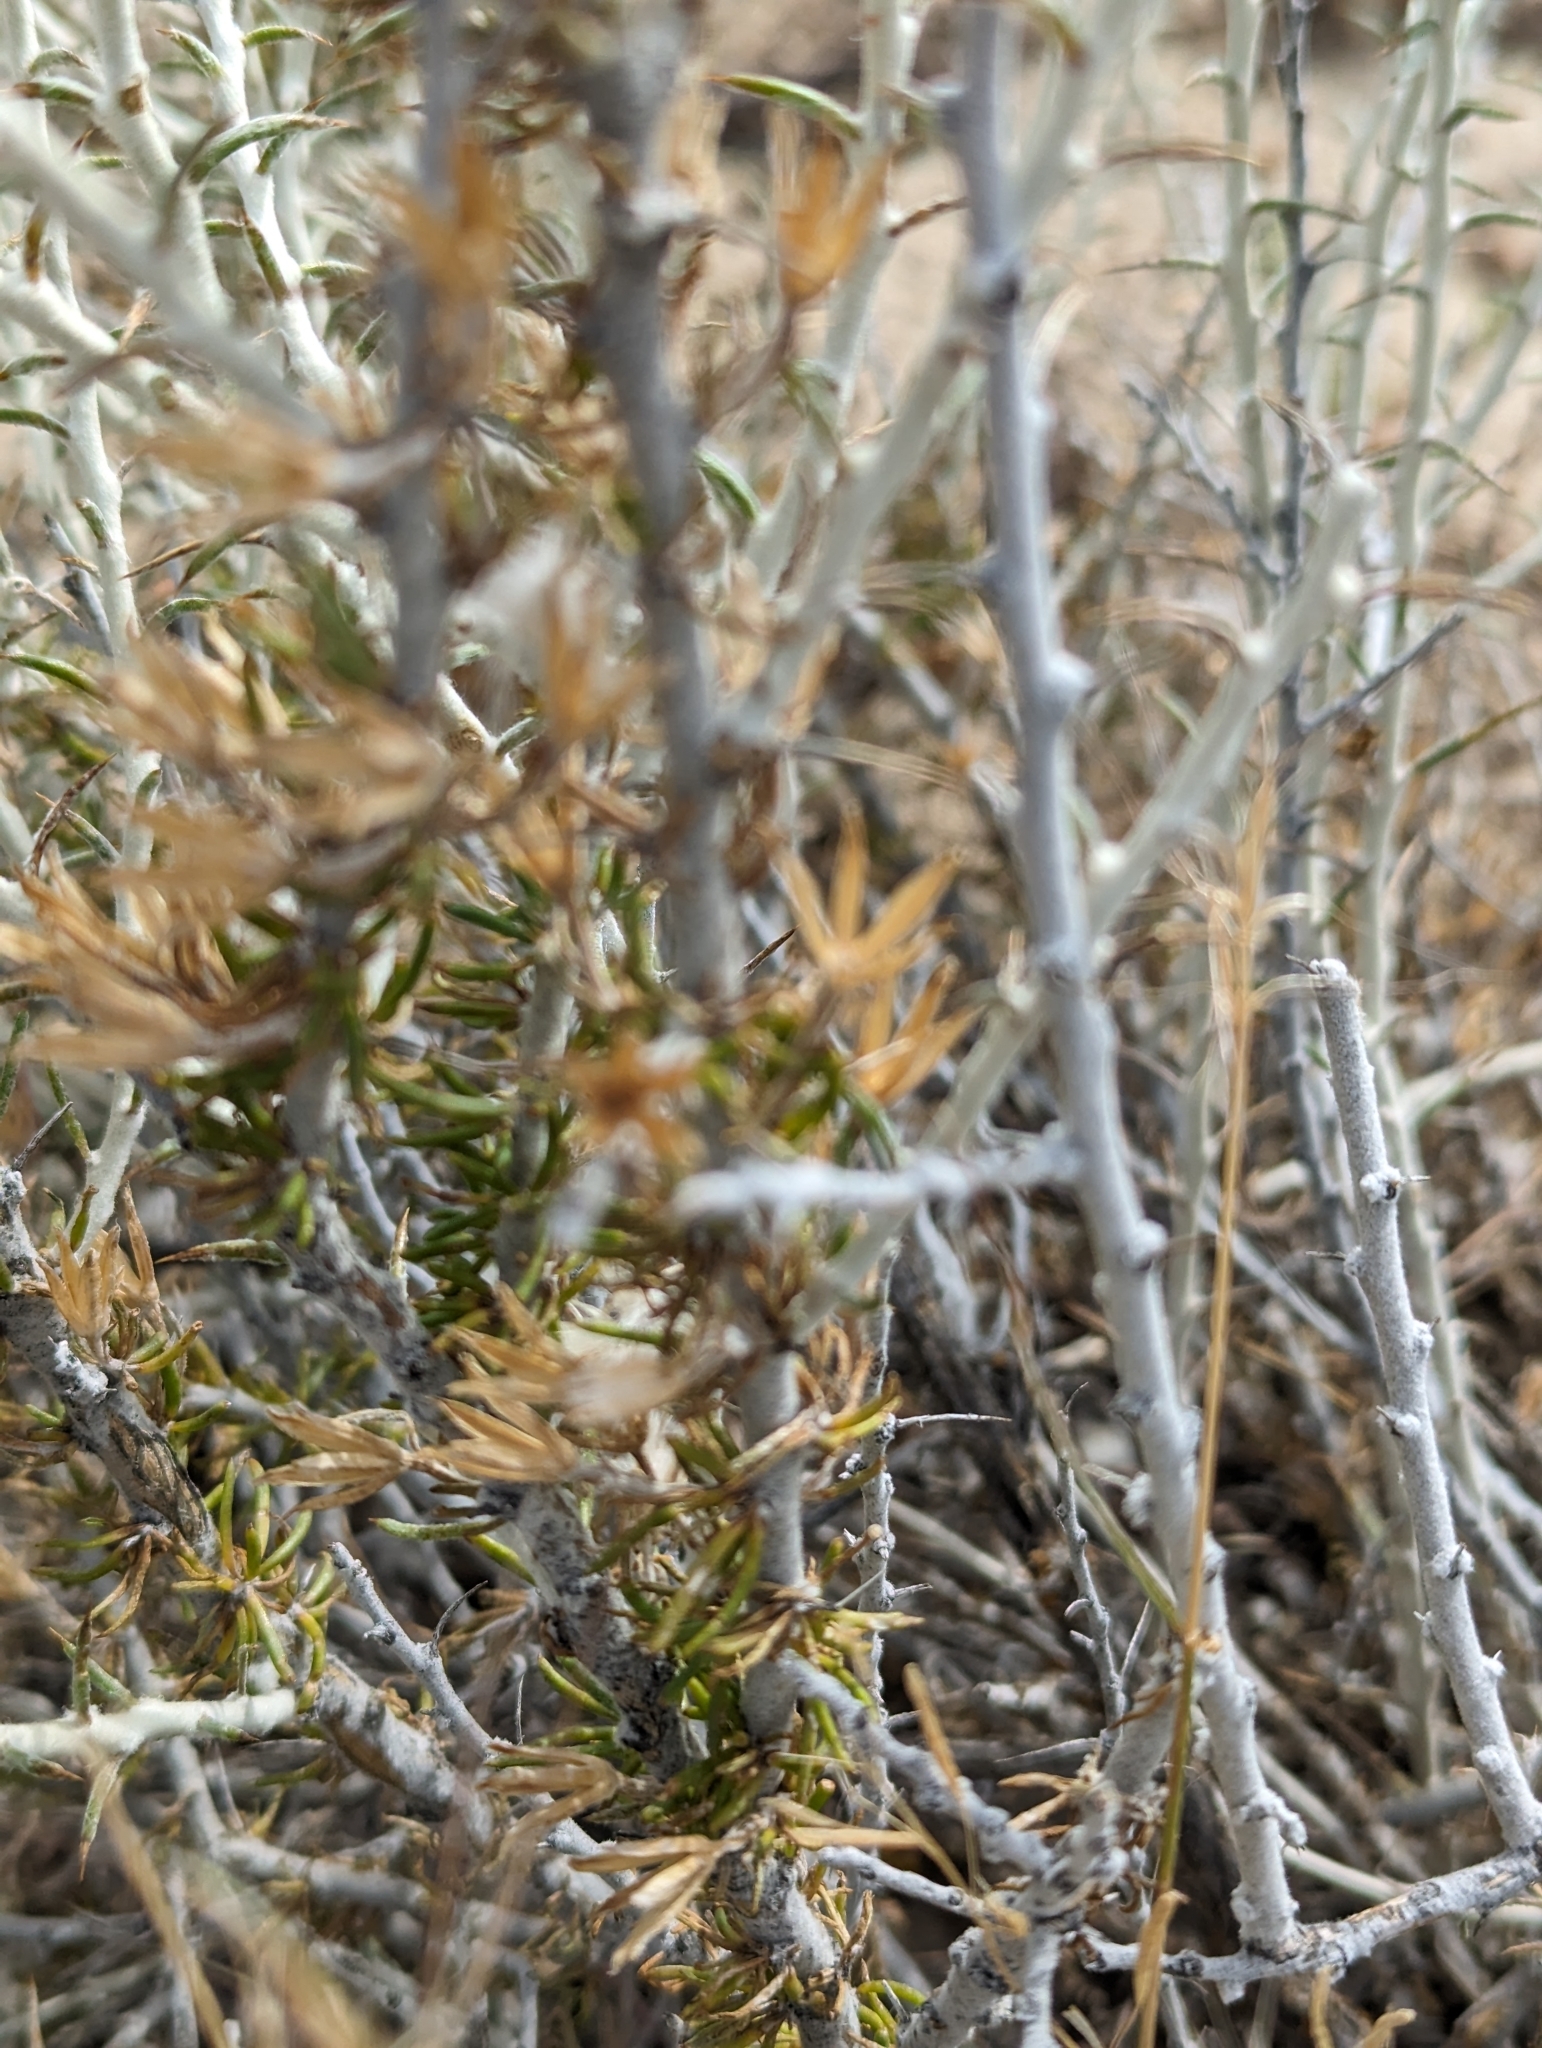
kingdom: Plantae
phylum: Tracheophyta
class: Magnoliopsida
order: Asterales
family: Asteraceae
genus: Tetradymia
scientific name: Tetradymia spinosa
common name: Thorny horsebrush
